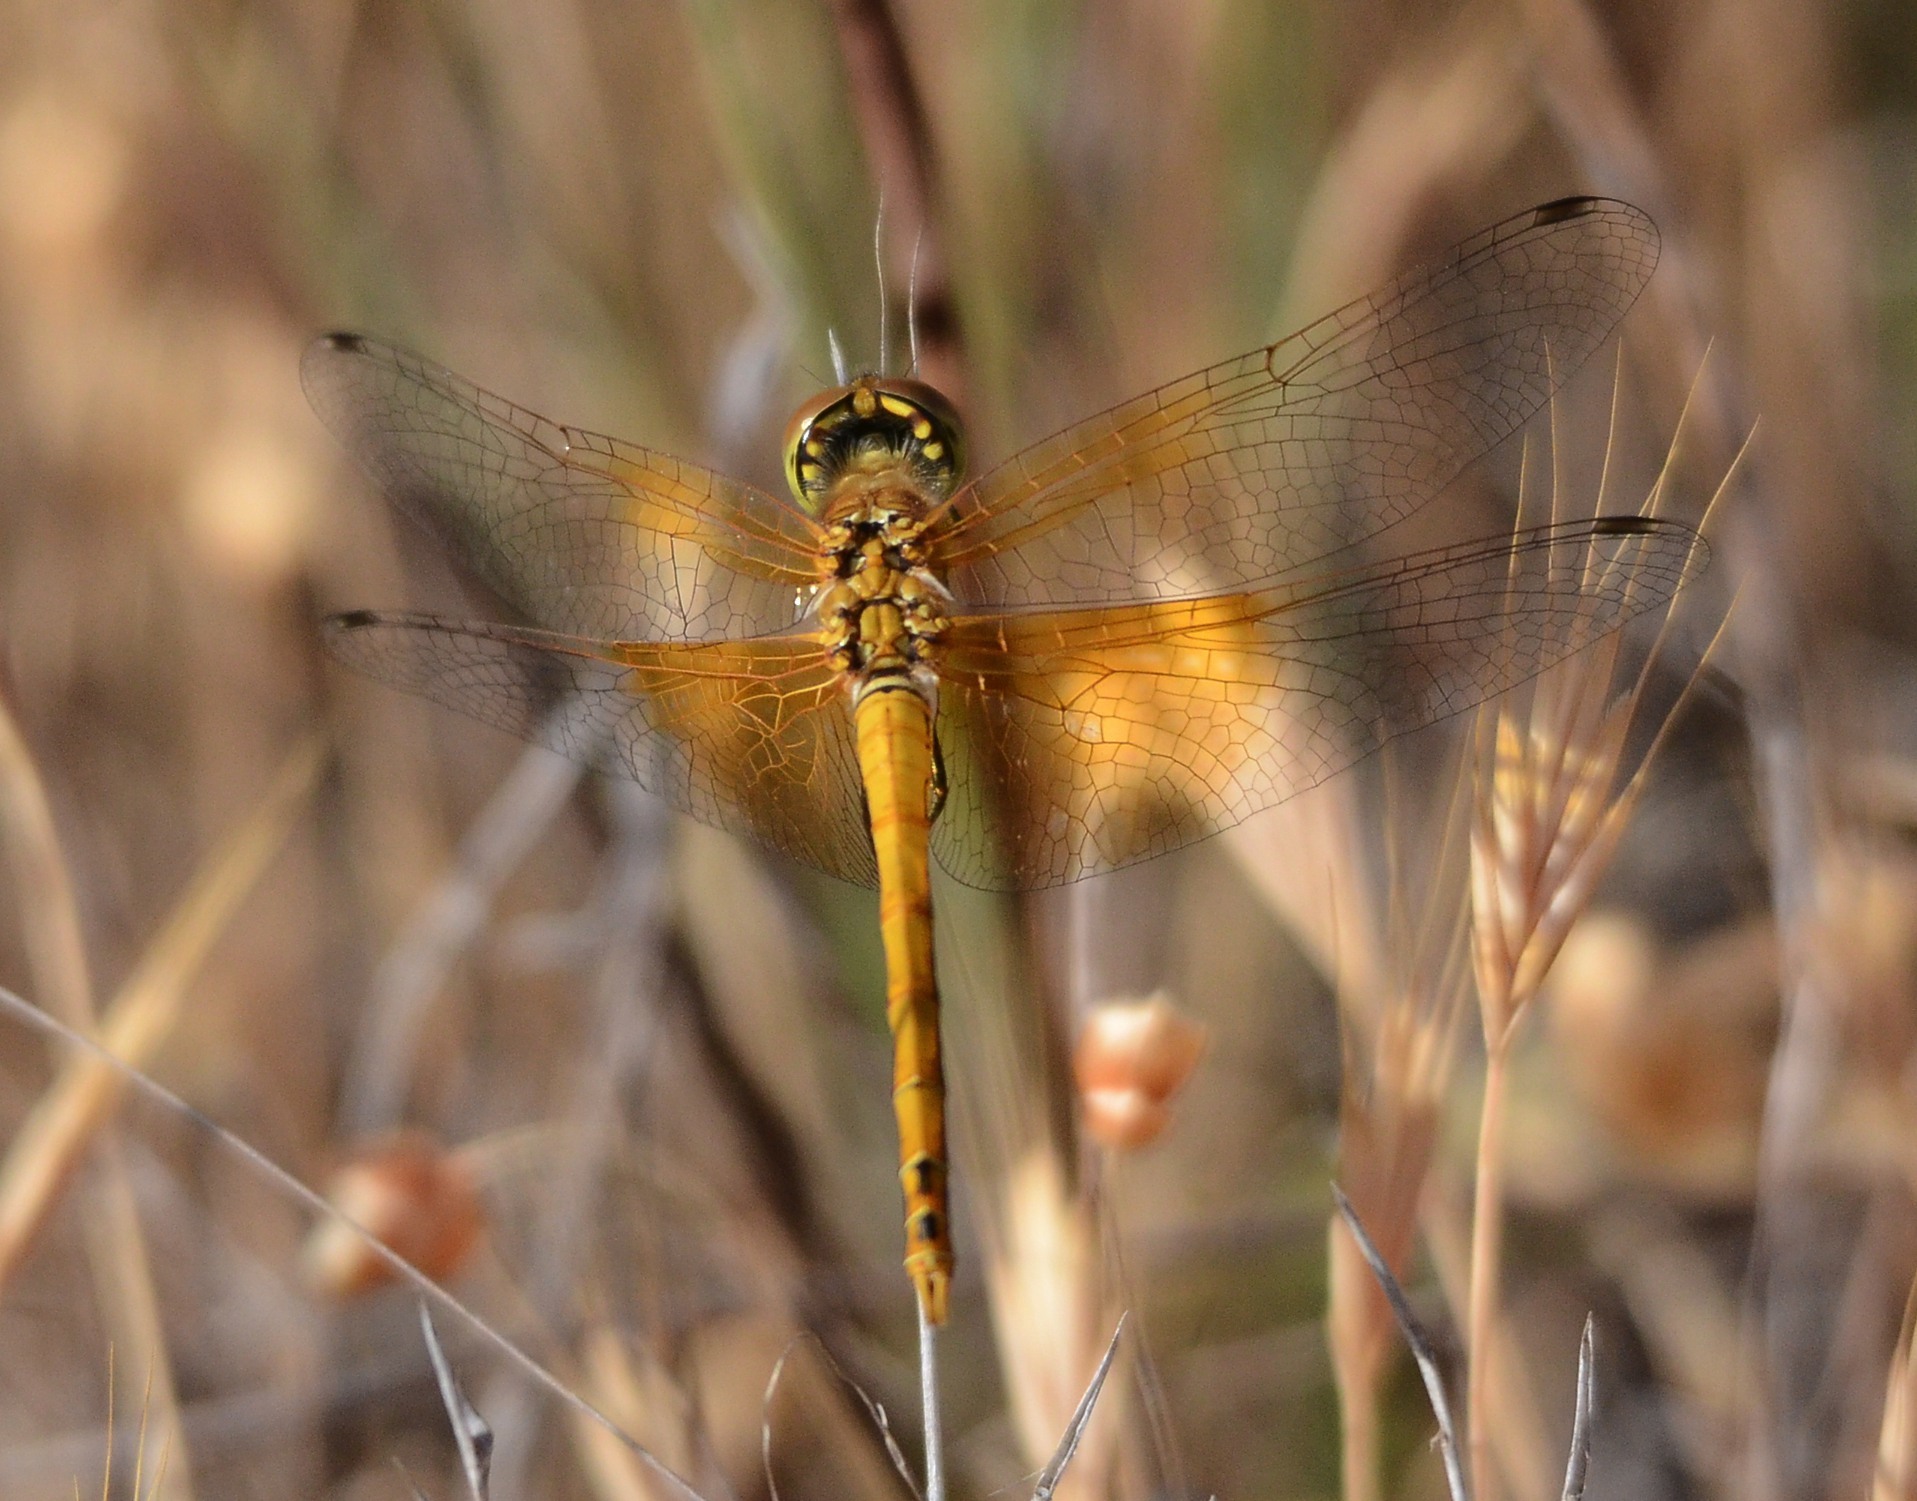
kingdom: Animalia
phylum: Arthropoda
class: Insecta
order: Odonata
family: Libellulidae
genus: Sympetrum
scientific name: Sympetrum semicinctum
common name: Band-winged meadowhawk
